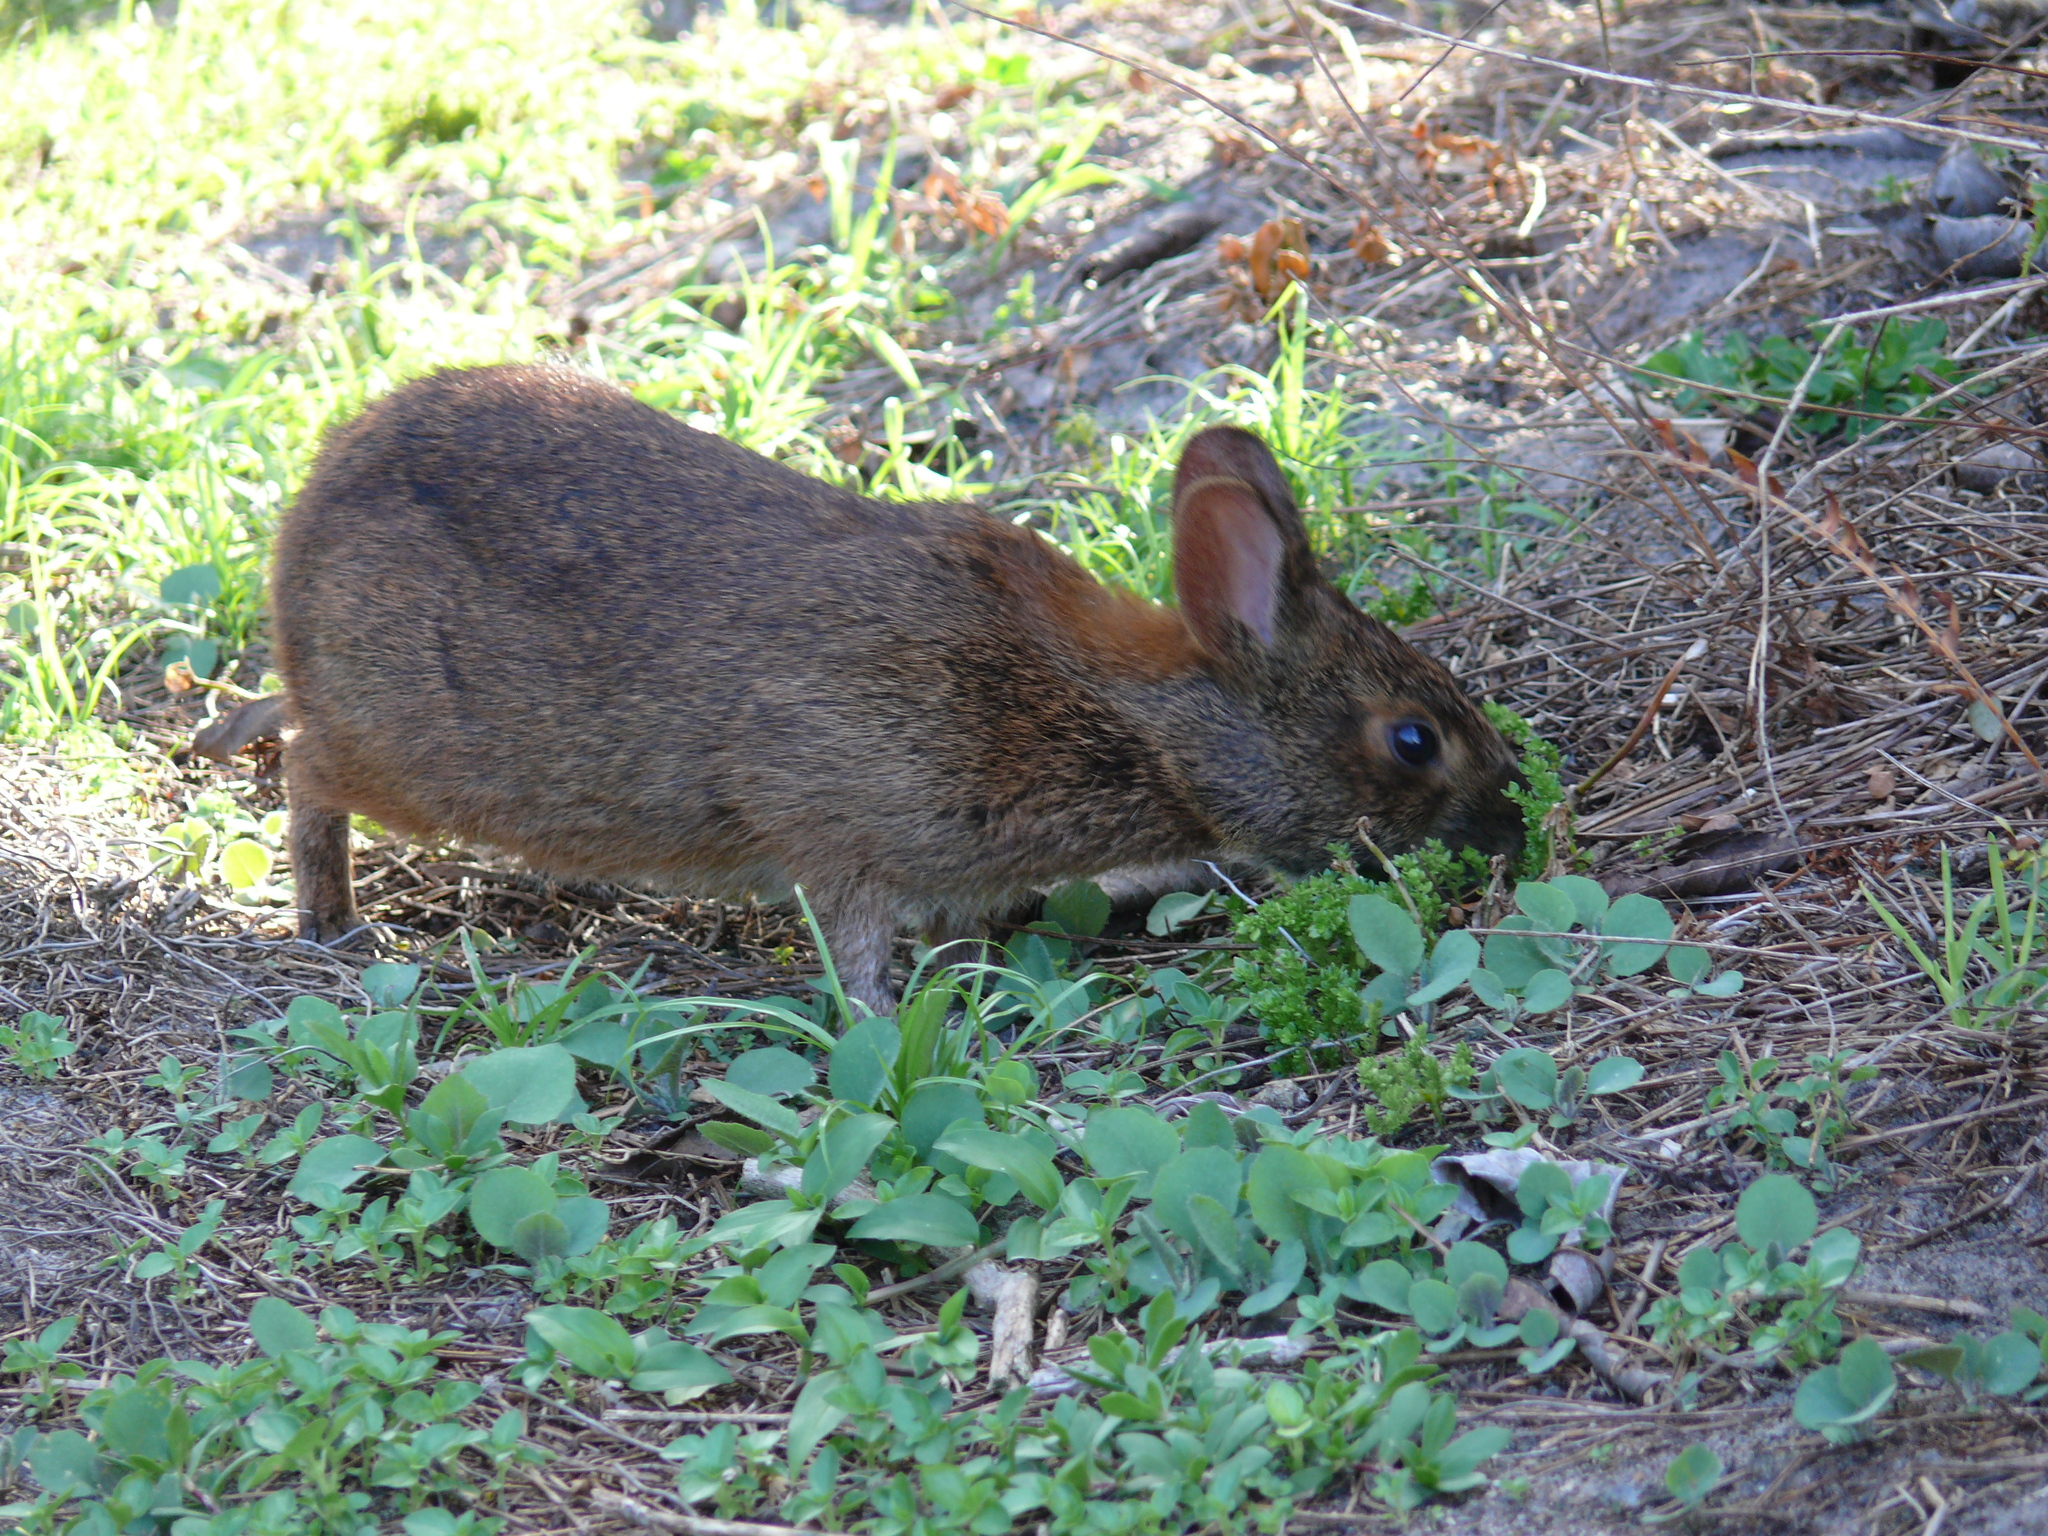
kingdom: Animalia
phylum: Chordata
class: Mammalia
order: Lagomorpha
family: Leporidae
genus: Sylvilagus
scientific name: Sylvilagus palustris
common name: Marsh rabbit
